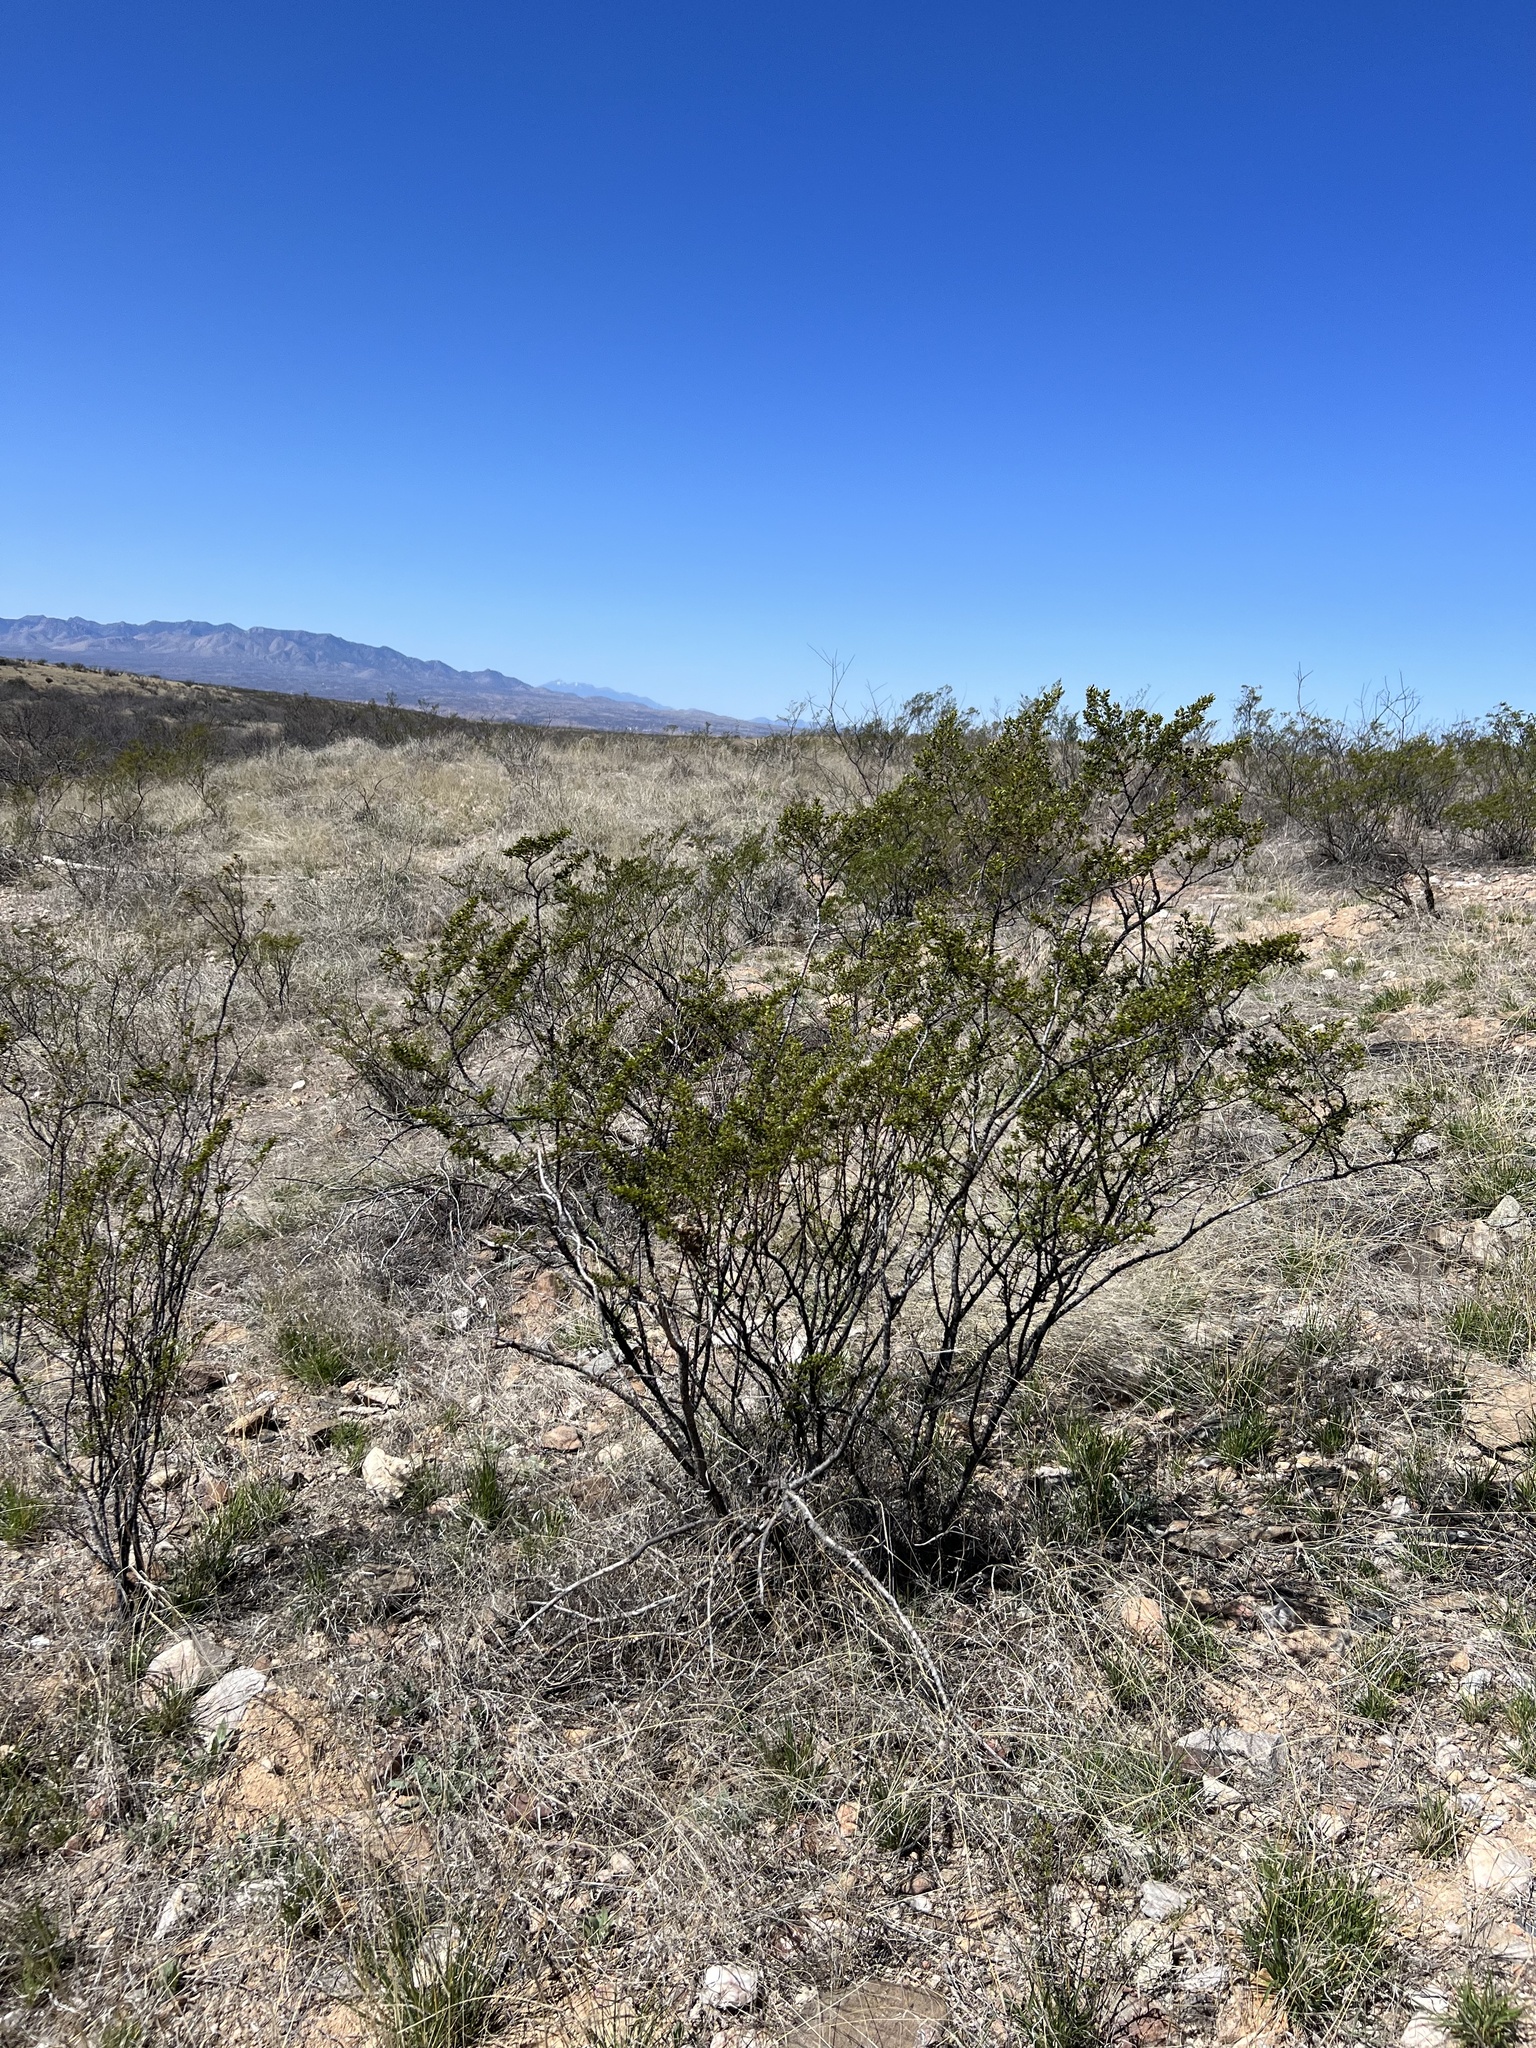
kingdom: Plantae
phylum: Tracheophyta
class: Magnoliopsida
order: Zygophyllales
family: Zygophyllaceae
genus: Larrea
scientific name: Larrea tridentata
